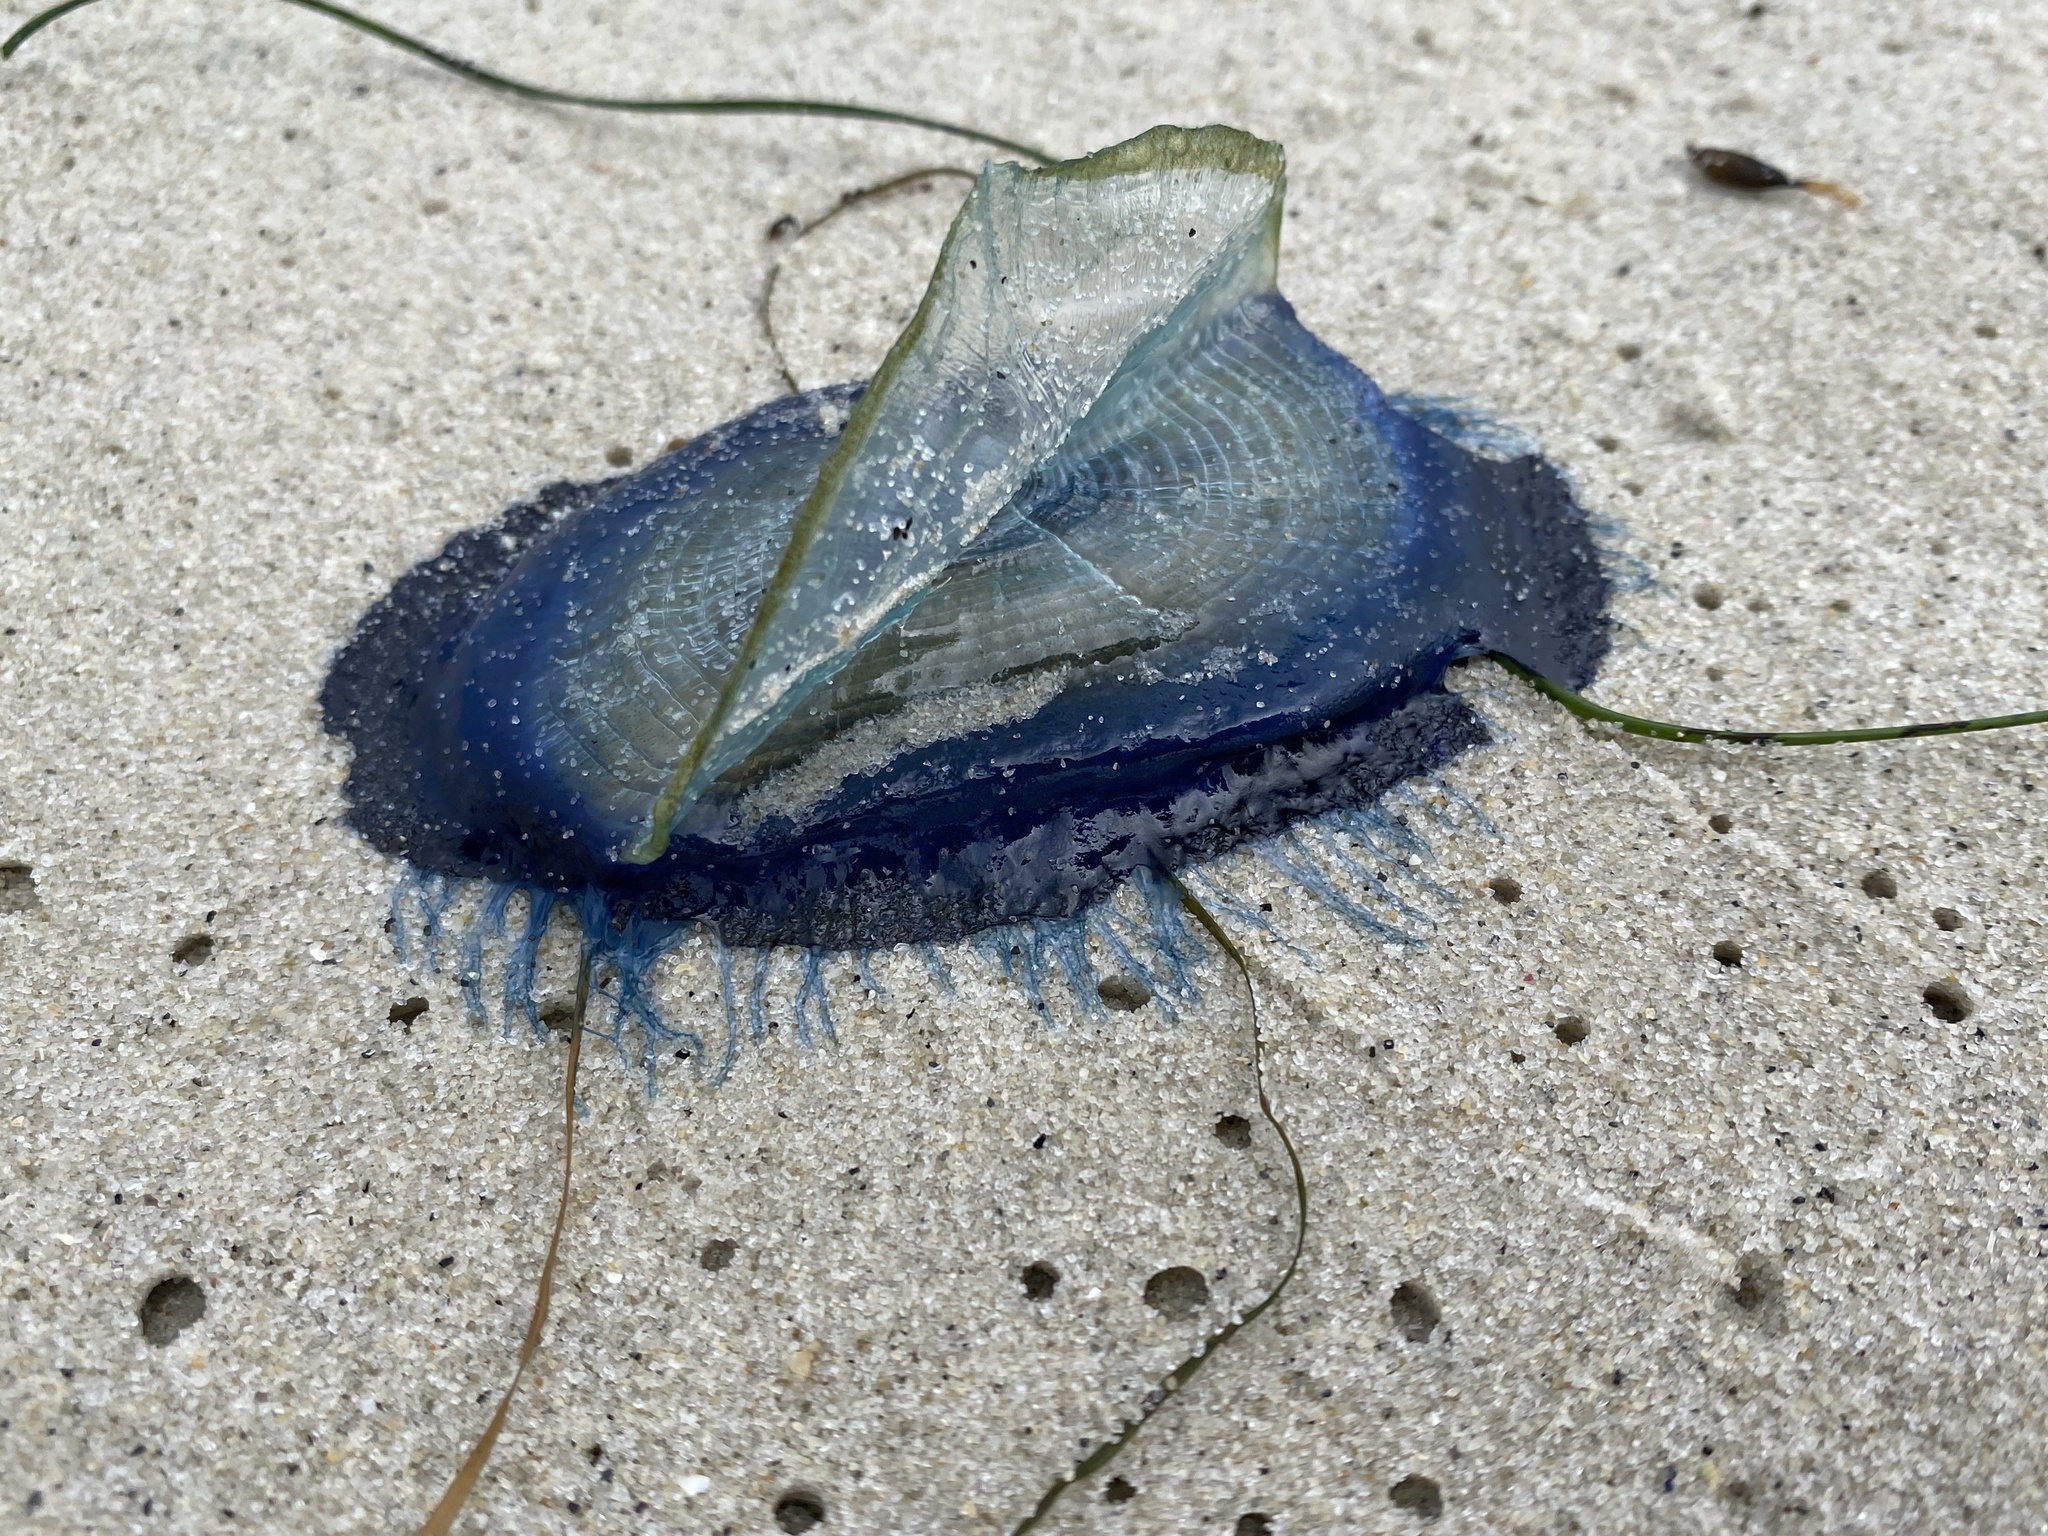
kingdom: Animalia
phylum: Cnidaria
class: Hydrozoa
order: Anthoathecata
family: Porpitidae
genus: Velella
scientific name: Velella velella
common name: By-the-wind-sailor
